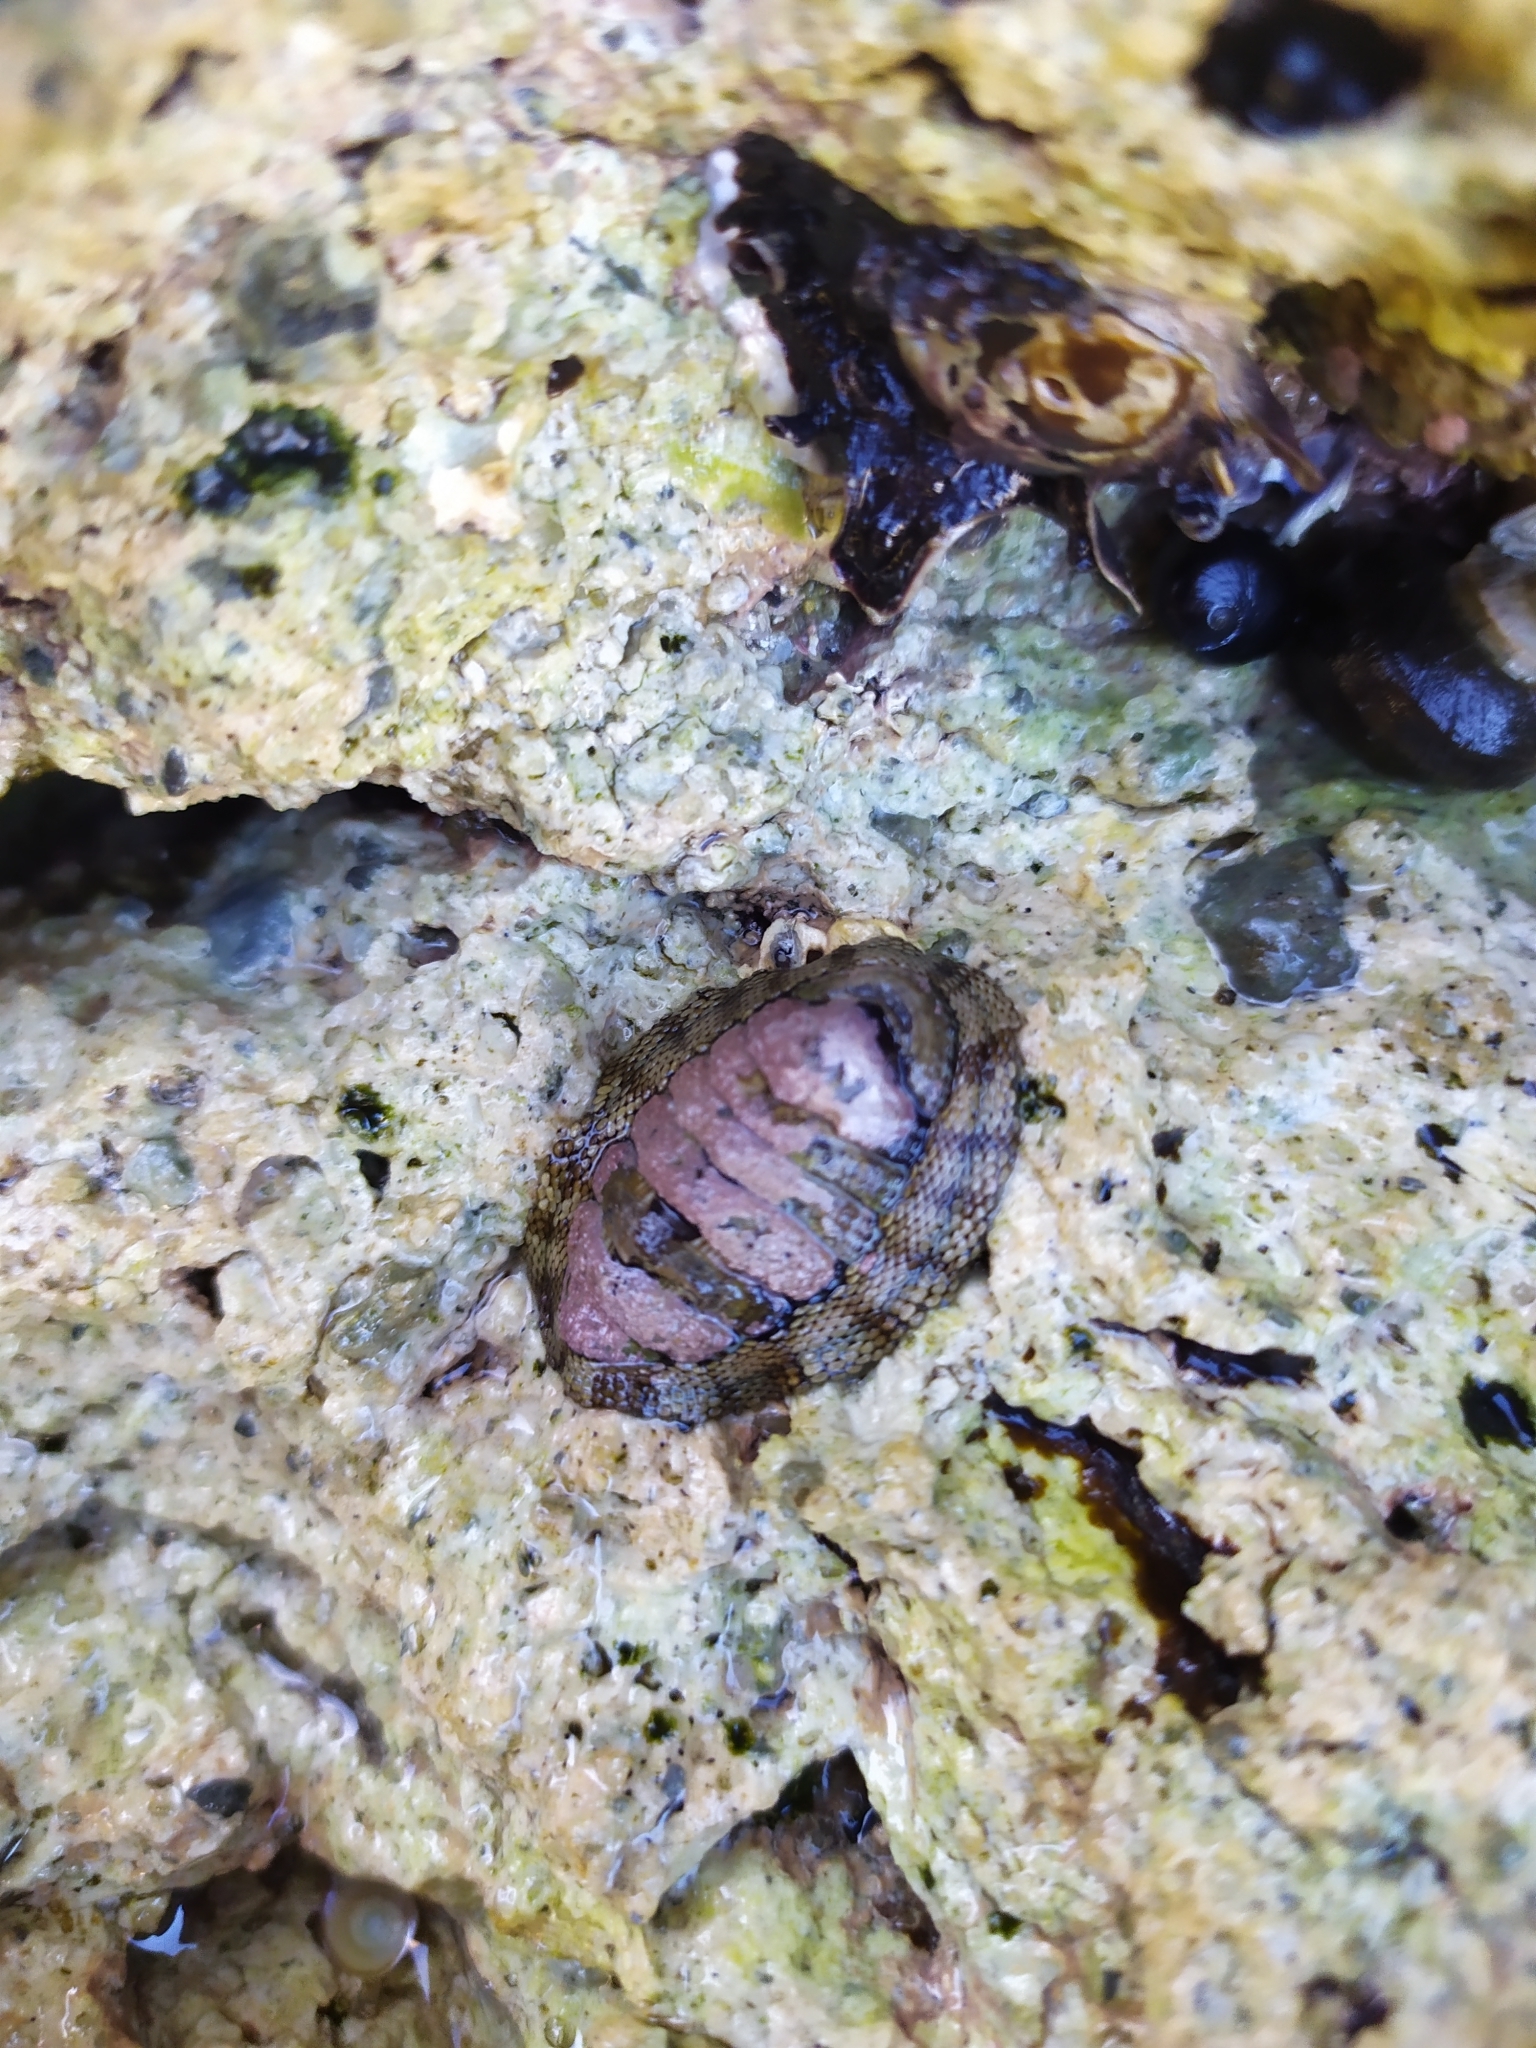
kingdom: Animalia
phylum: Mollusca
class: Polyplacophora
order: Chitonida
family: Chitonidae
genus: Sypharochiton
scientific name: Sypharochiton pelliserpentis
